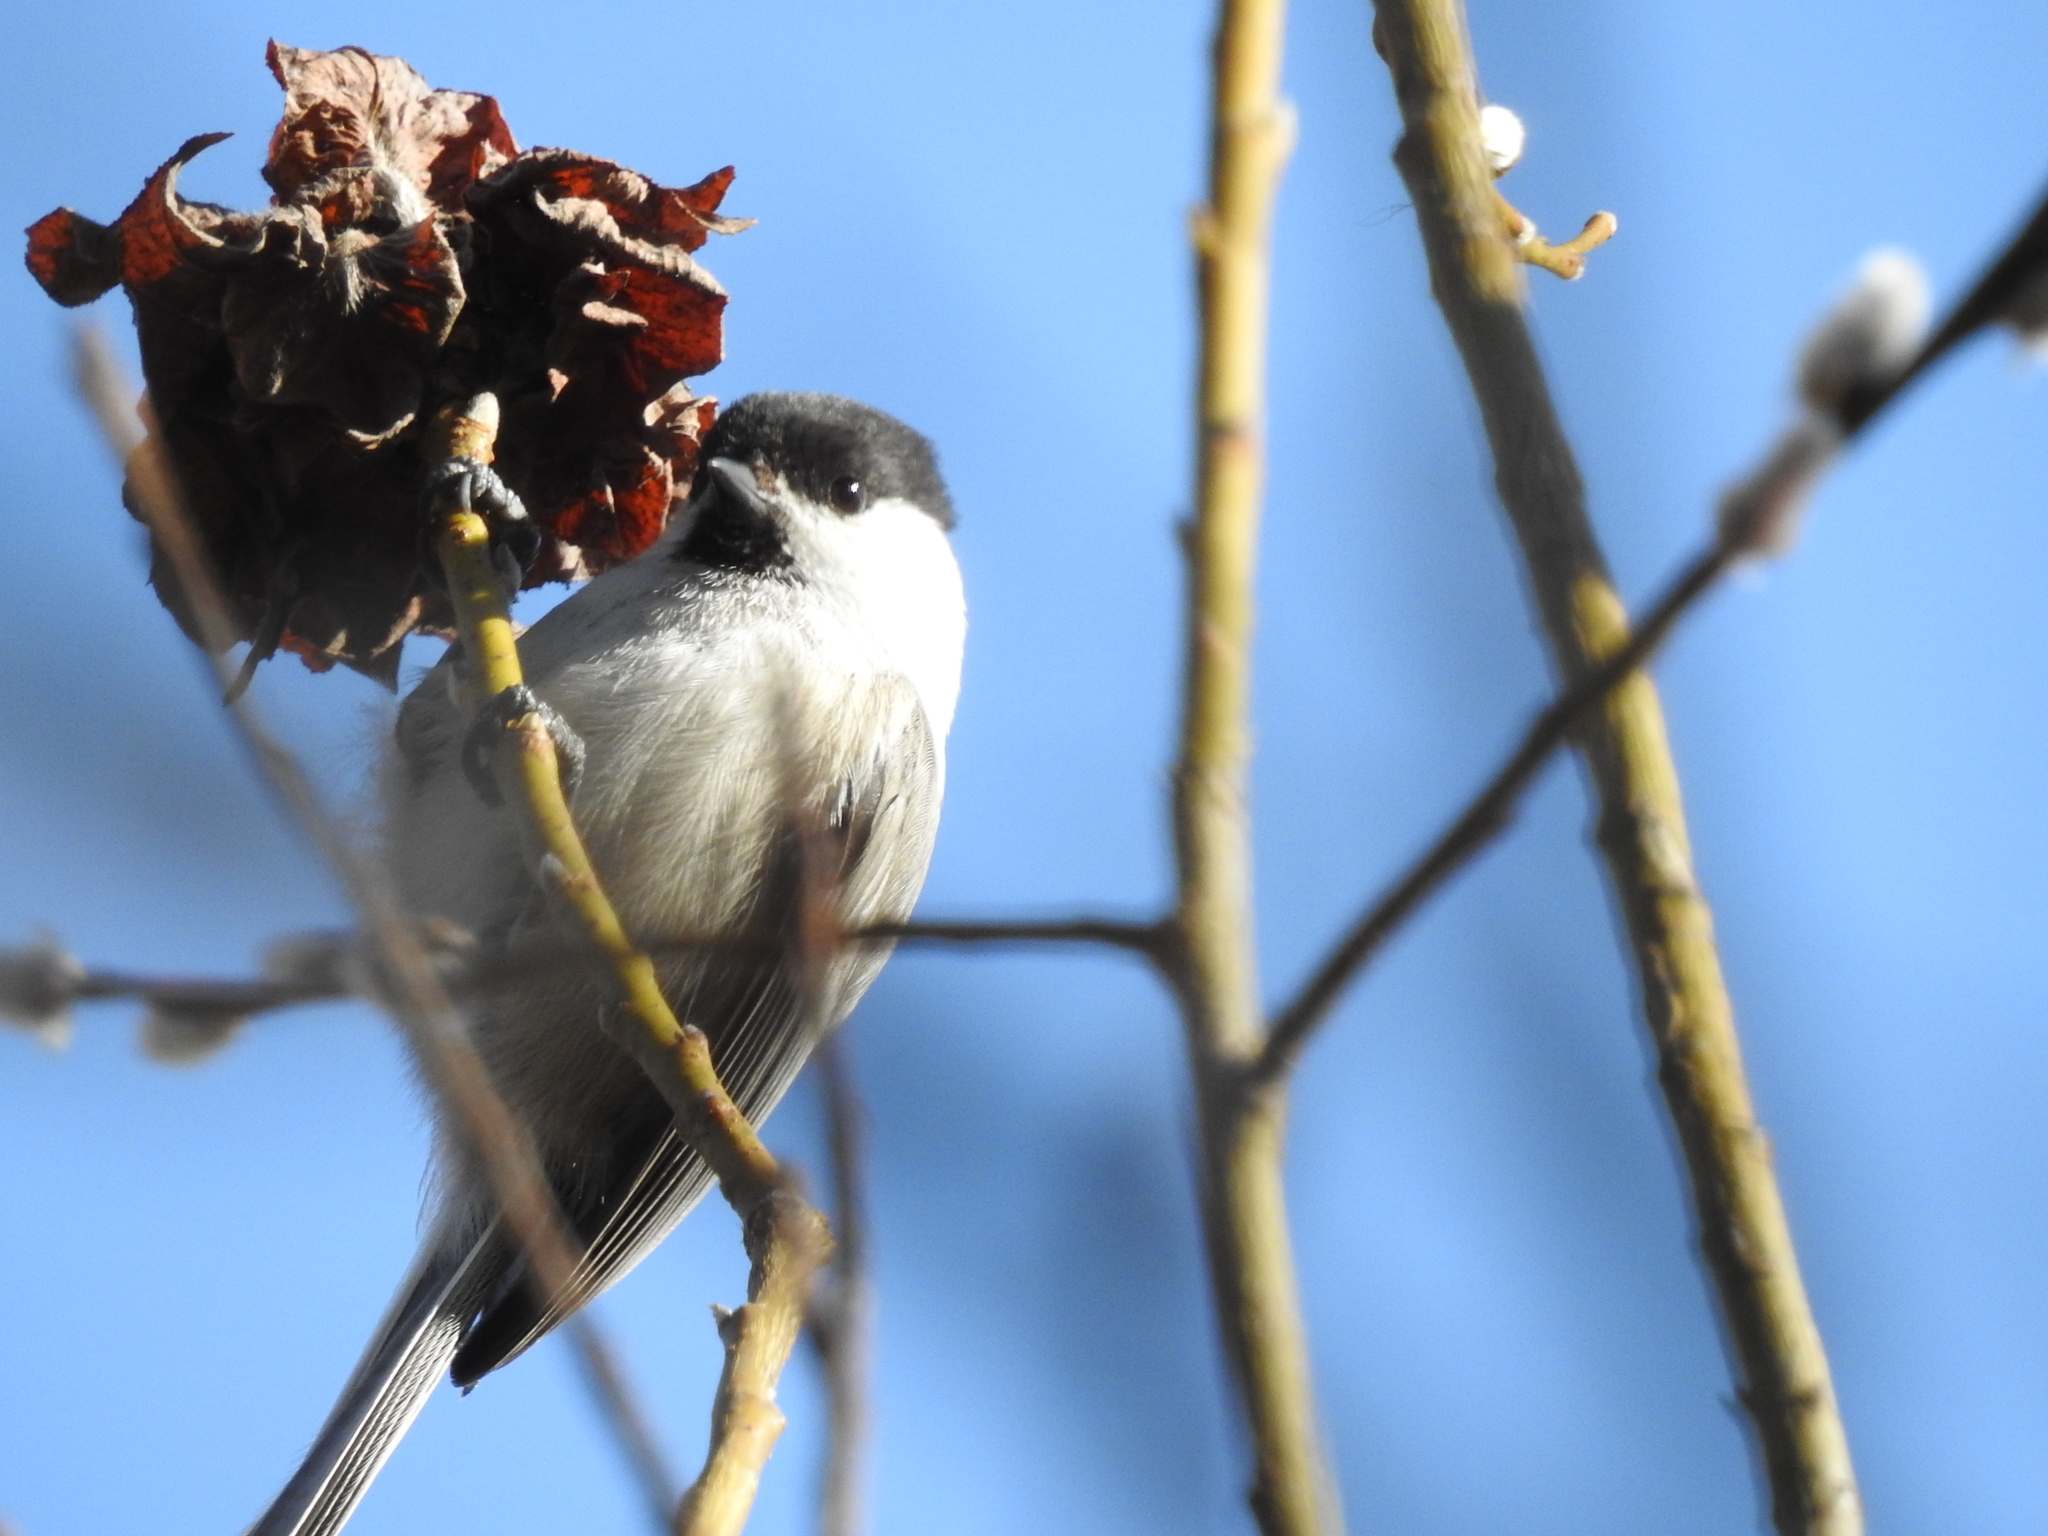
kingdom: Animalia
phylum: Chordata
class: Aves
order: Passeriformes
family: Paridae
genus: Poecile
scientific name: Poecile montanus
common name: Willow tit
